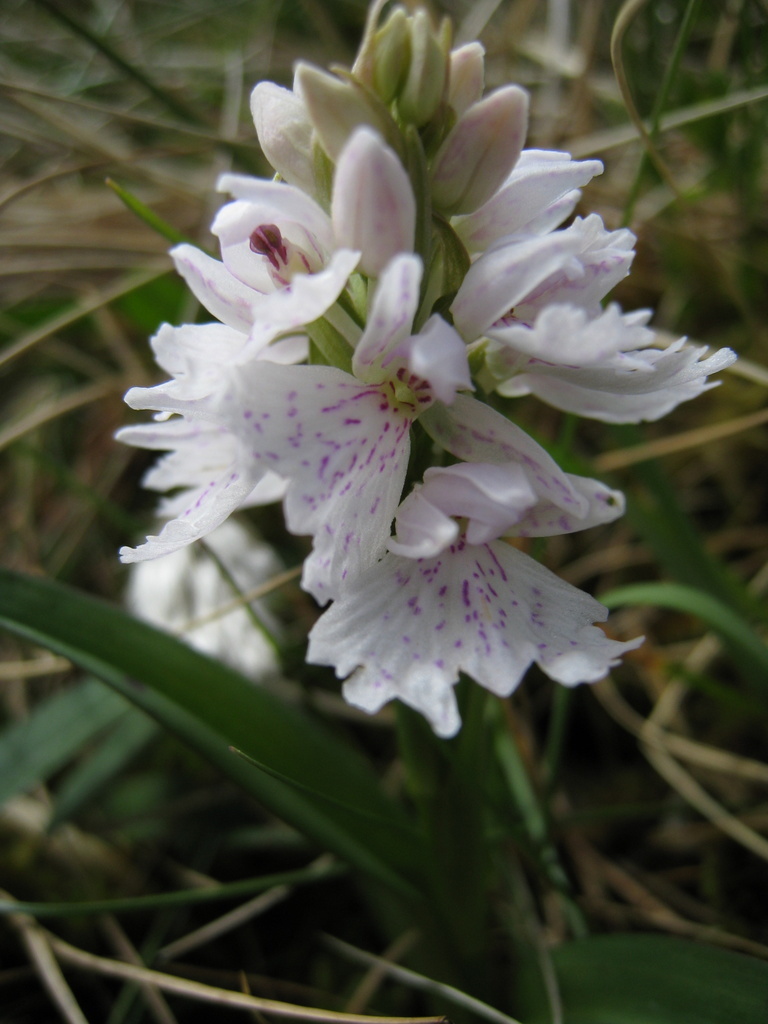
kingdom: Plantae
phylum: Tracheophyta
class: Liliopsida
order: Asparagales
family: Orchidaceae
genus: Dactylorhiza
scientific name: Dactylorhiza maculata
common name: Heath spotted-orchid
